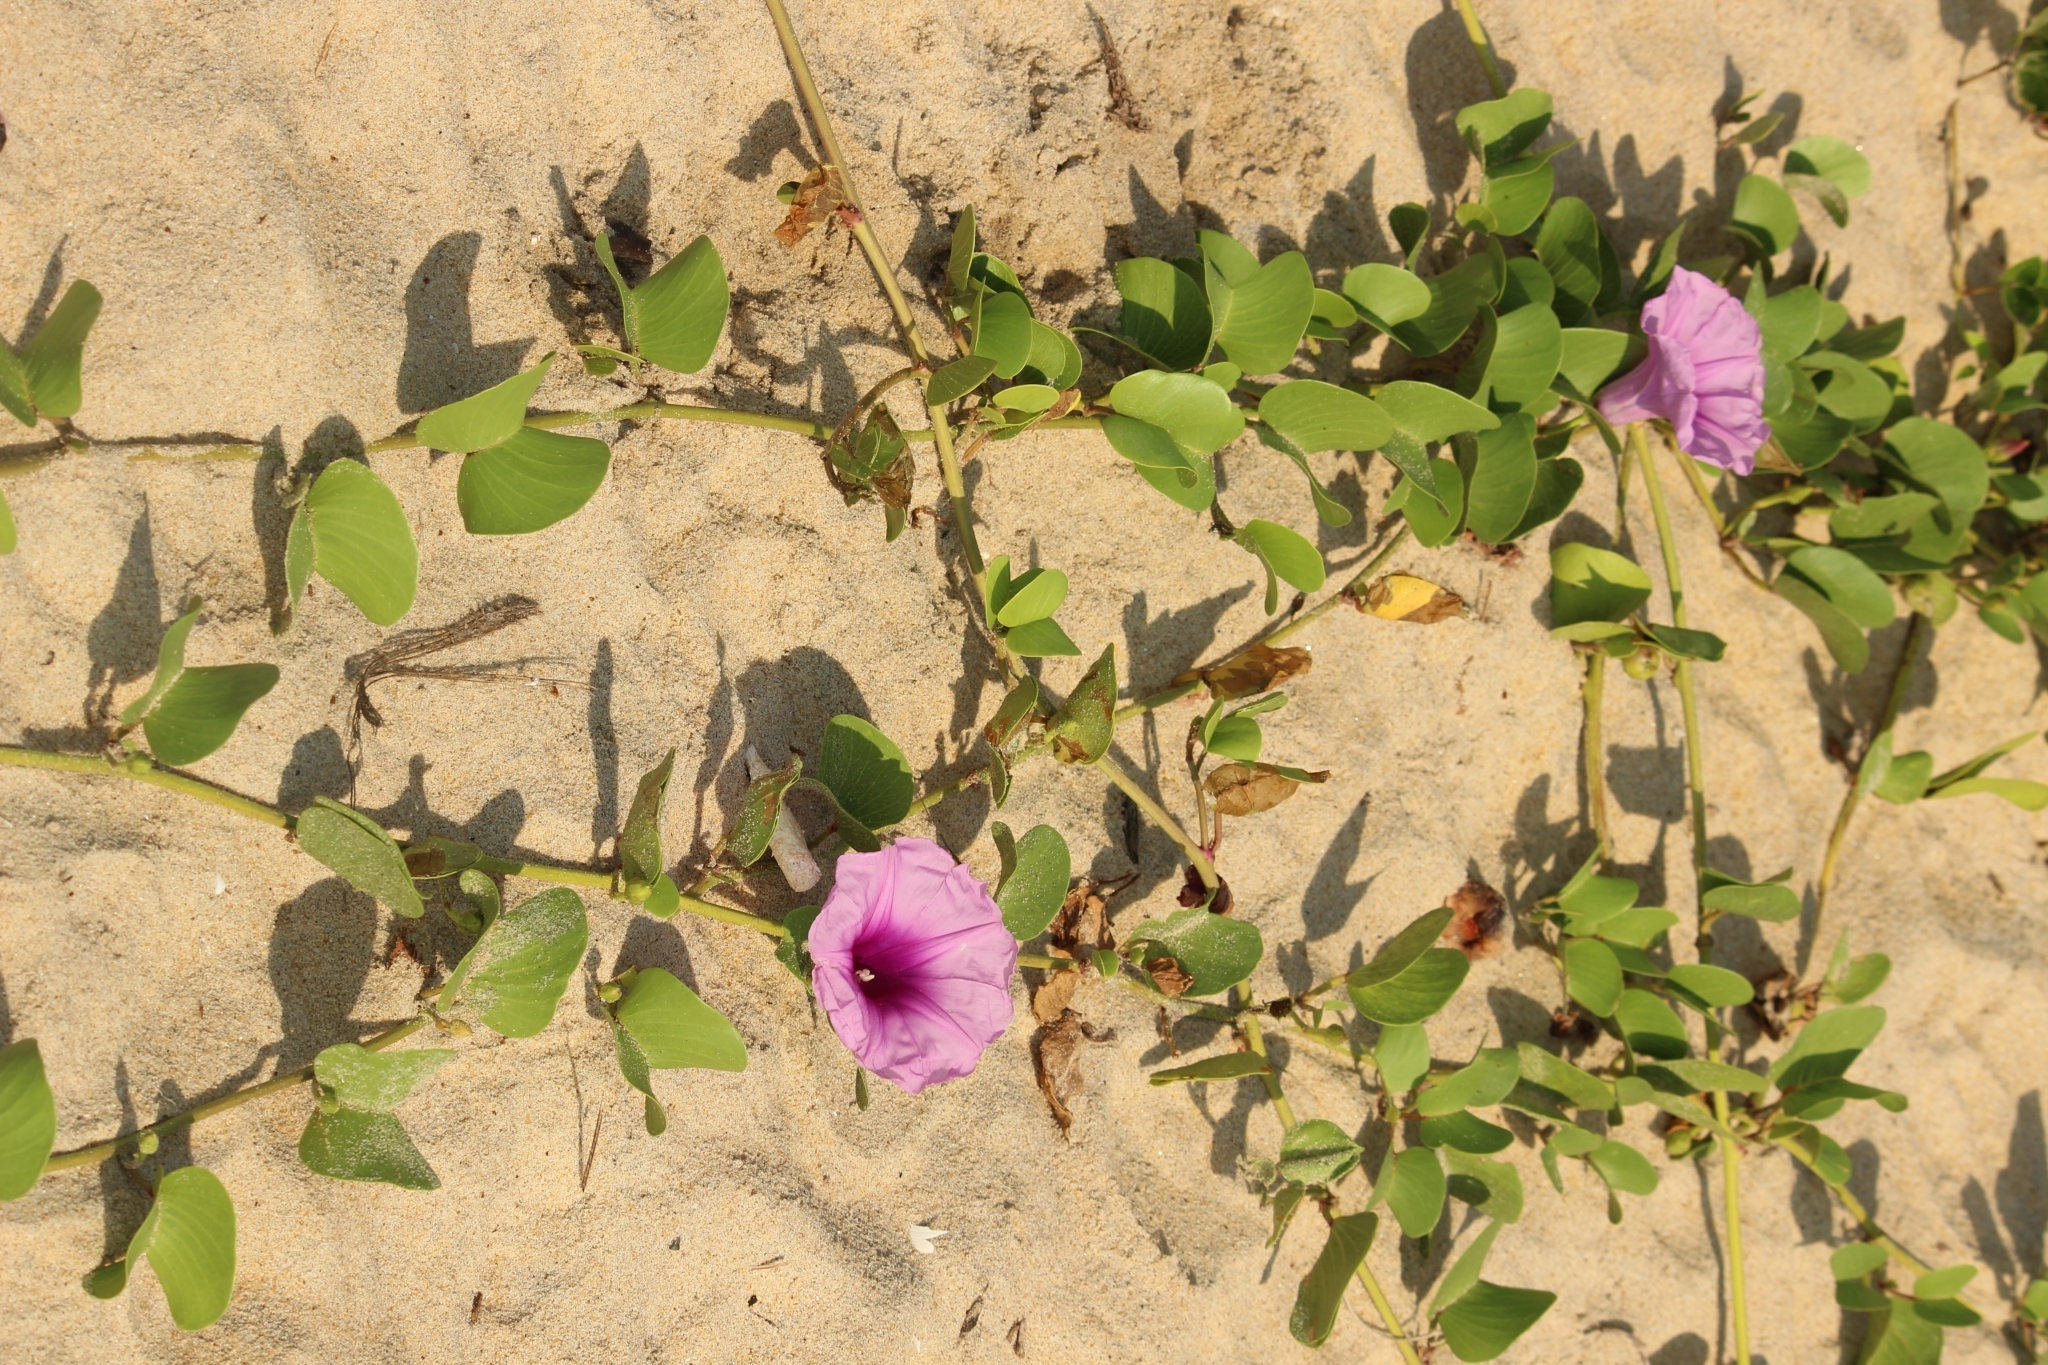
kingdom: Plantae
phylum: Tracheophyta
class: Magnoliopsida
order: Solanales
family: Convolvulaceae
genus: Ipomoea
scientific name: Ipomoea pes-caprae
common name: Beach morning glory
